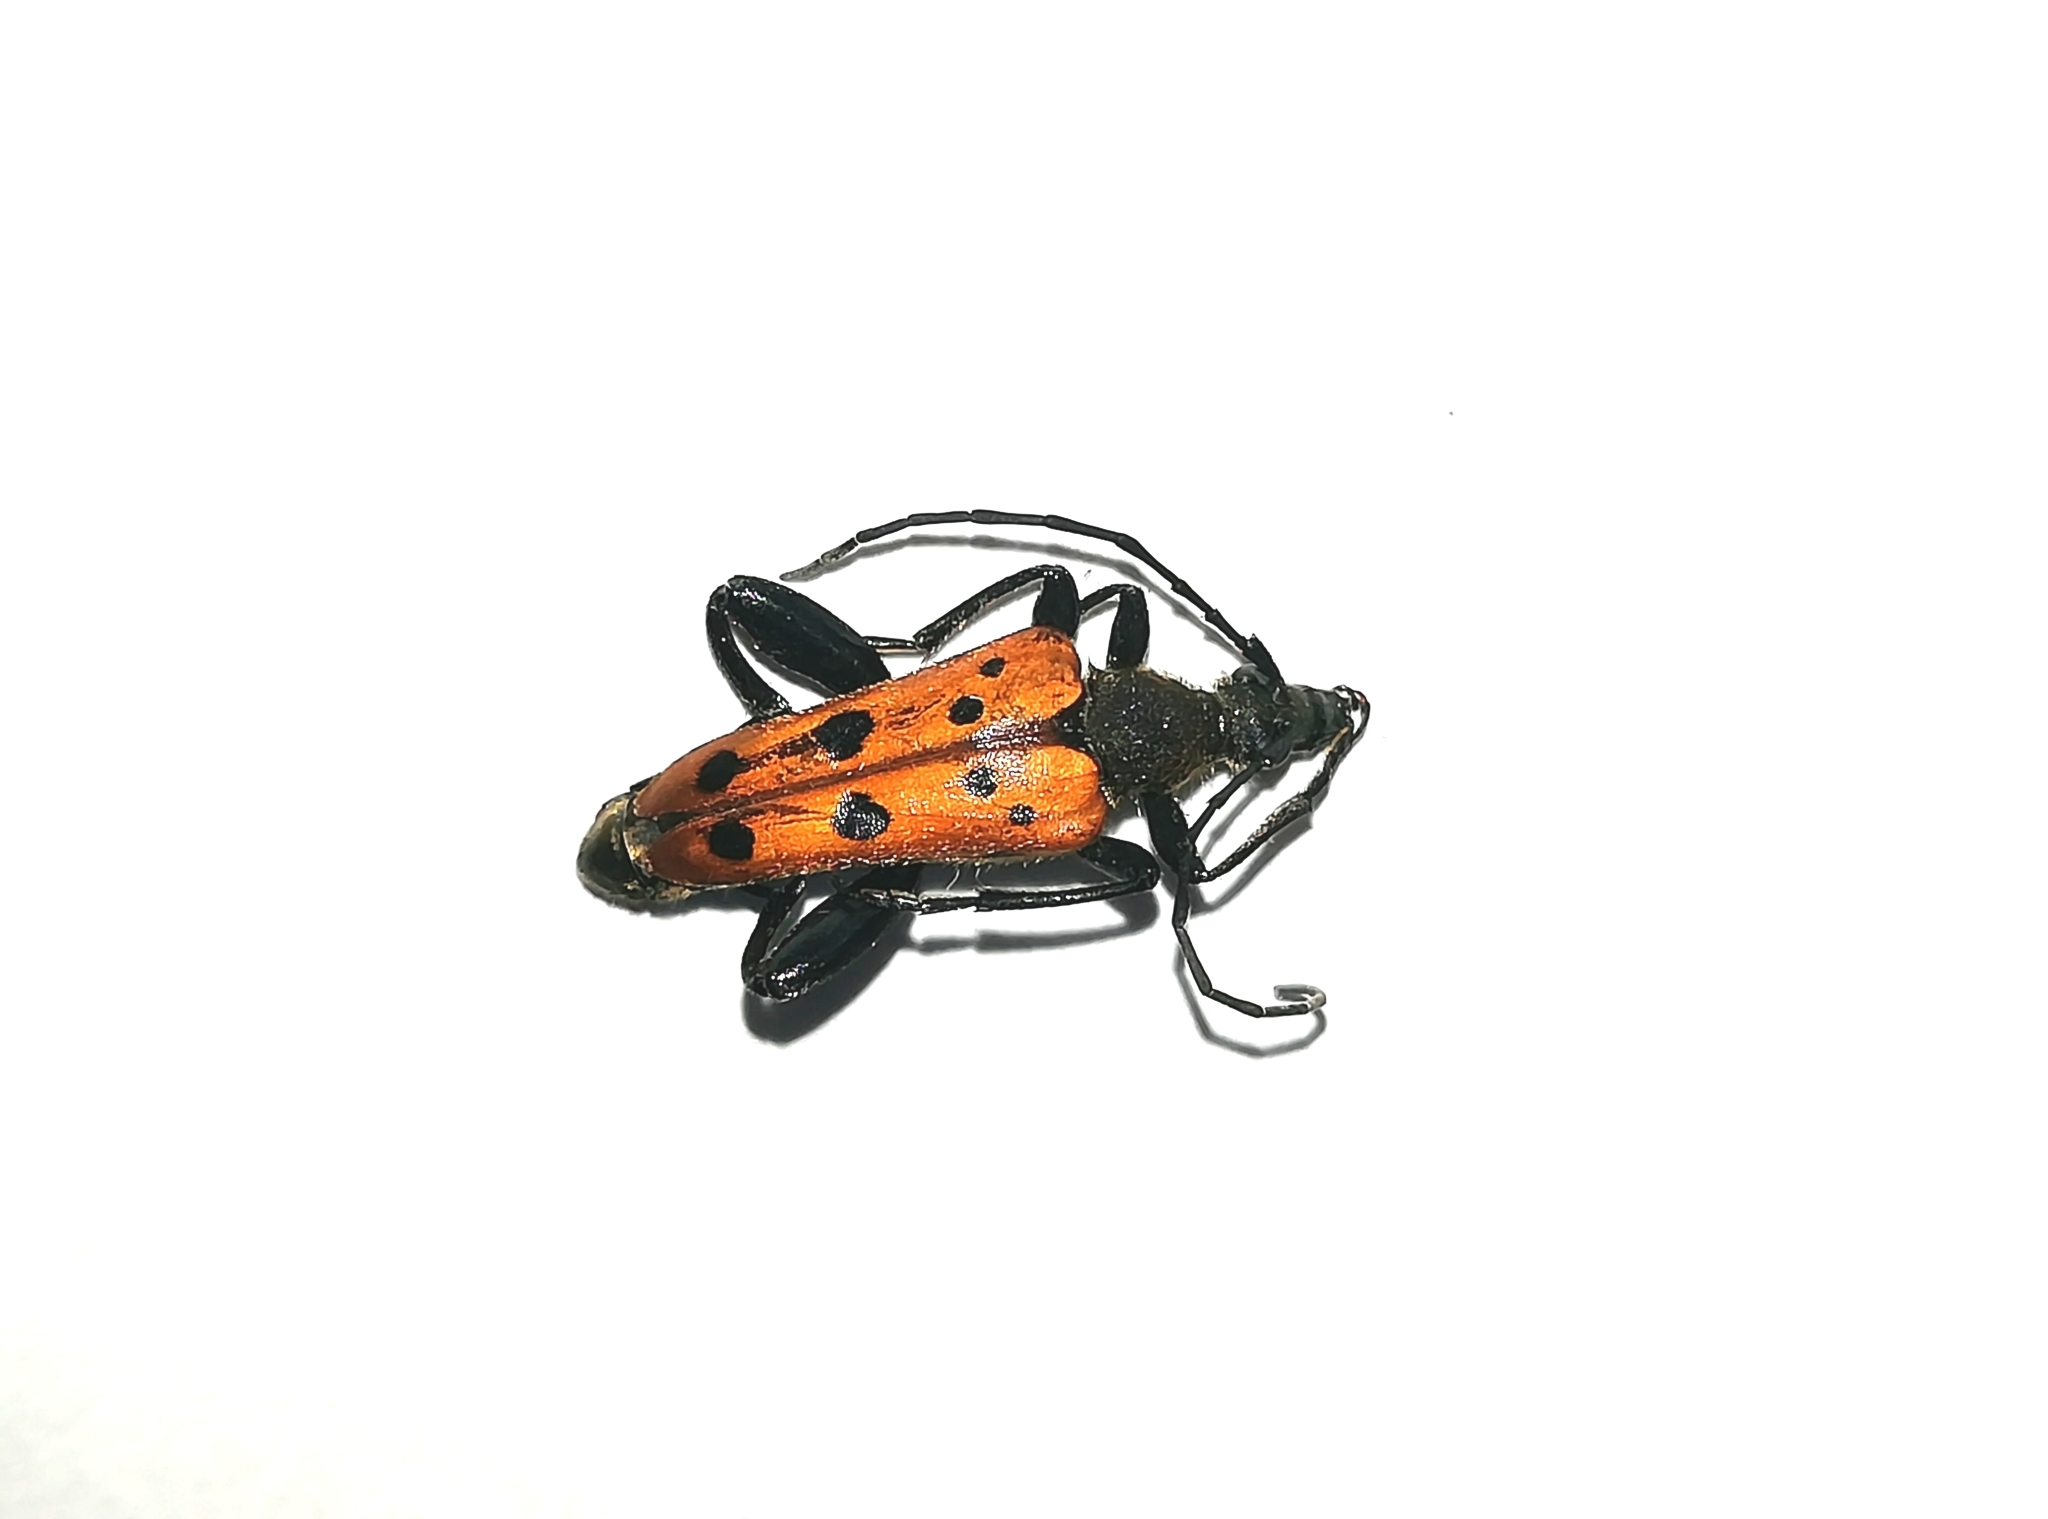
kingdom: Animalia
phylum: Arthropoda
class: Insecta
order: Coleoptera
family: Cerambycidae
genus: Oedecnema
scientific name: Oedecnema gebleri
